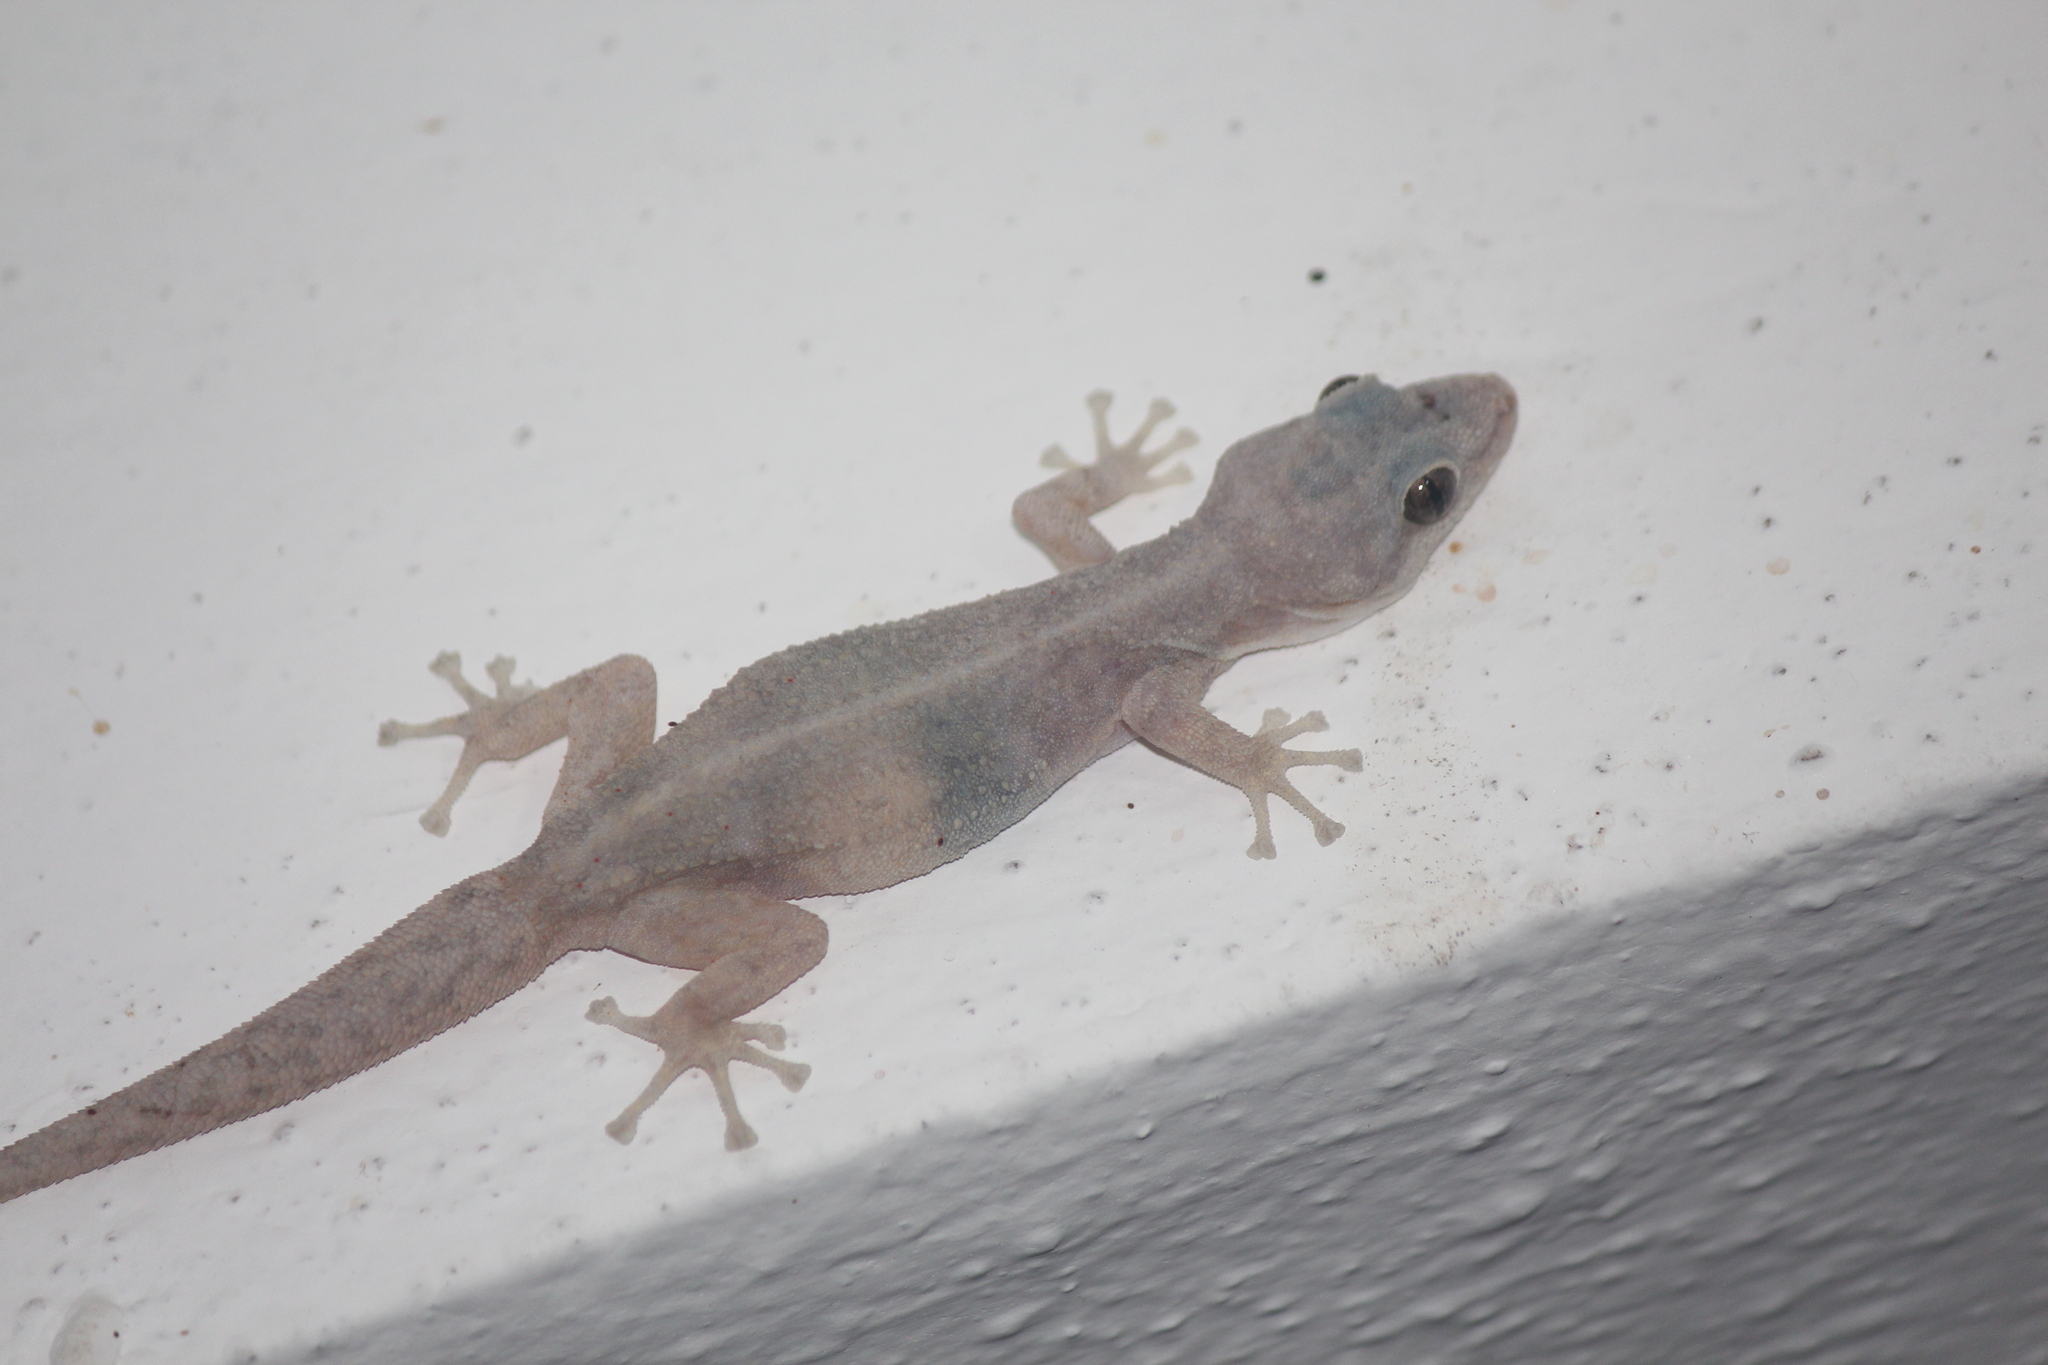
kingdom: Animalia
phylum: Chordata
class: Squamata
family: Phyllodactylidae
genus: Phyllodactylus
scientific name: Phyllodactylus reissii
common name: Peters' leaf-toed gecko
